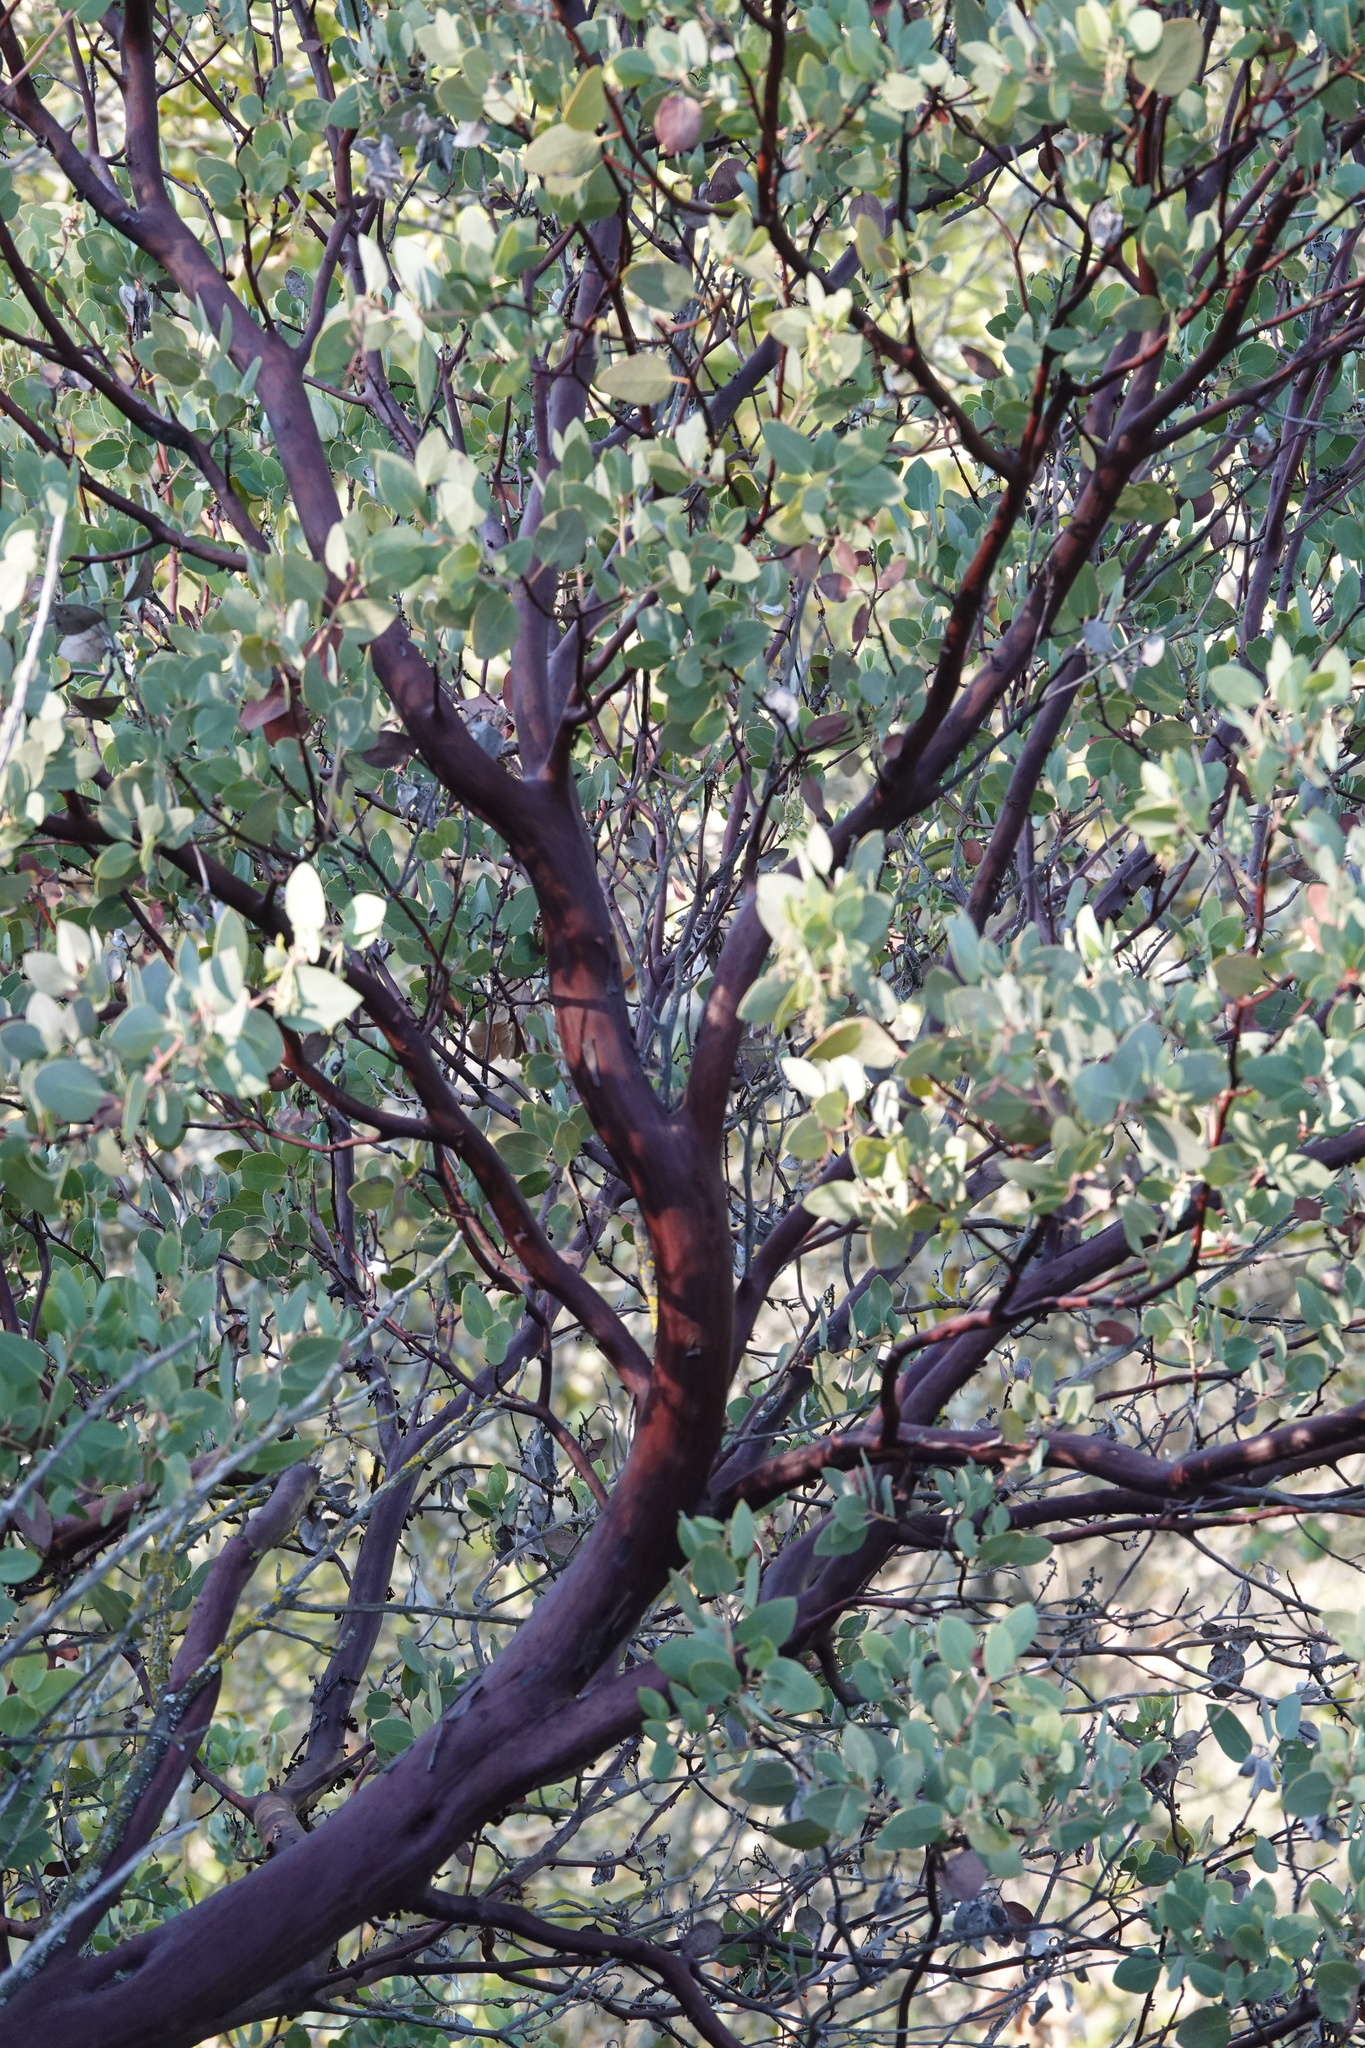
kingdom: Plantae
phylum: Tracheophyta
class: Magnoliopsida
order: Ericales
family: Ericaceae
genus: Arctostaphylos
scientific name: Arctostaphylos glauca
